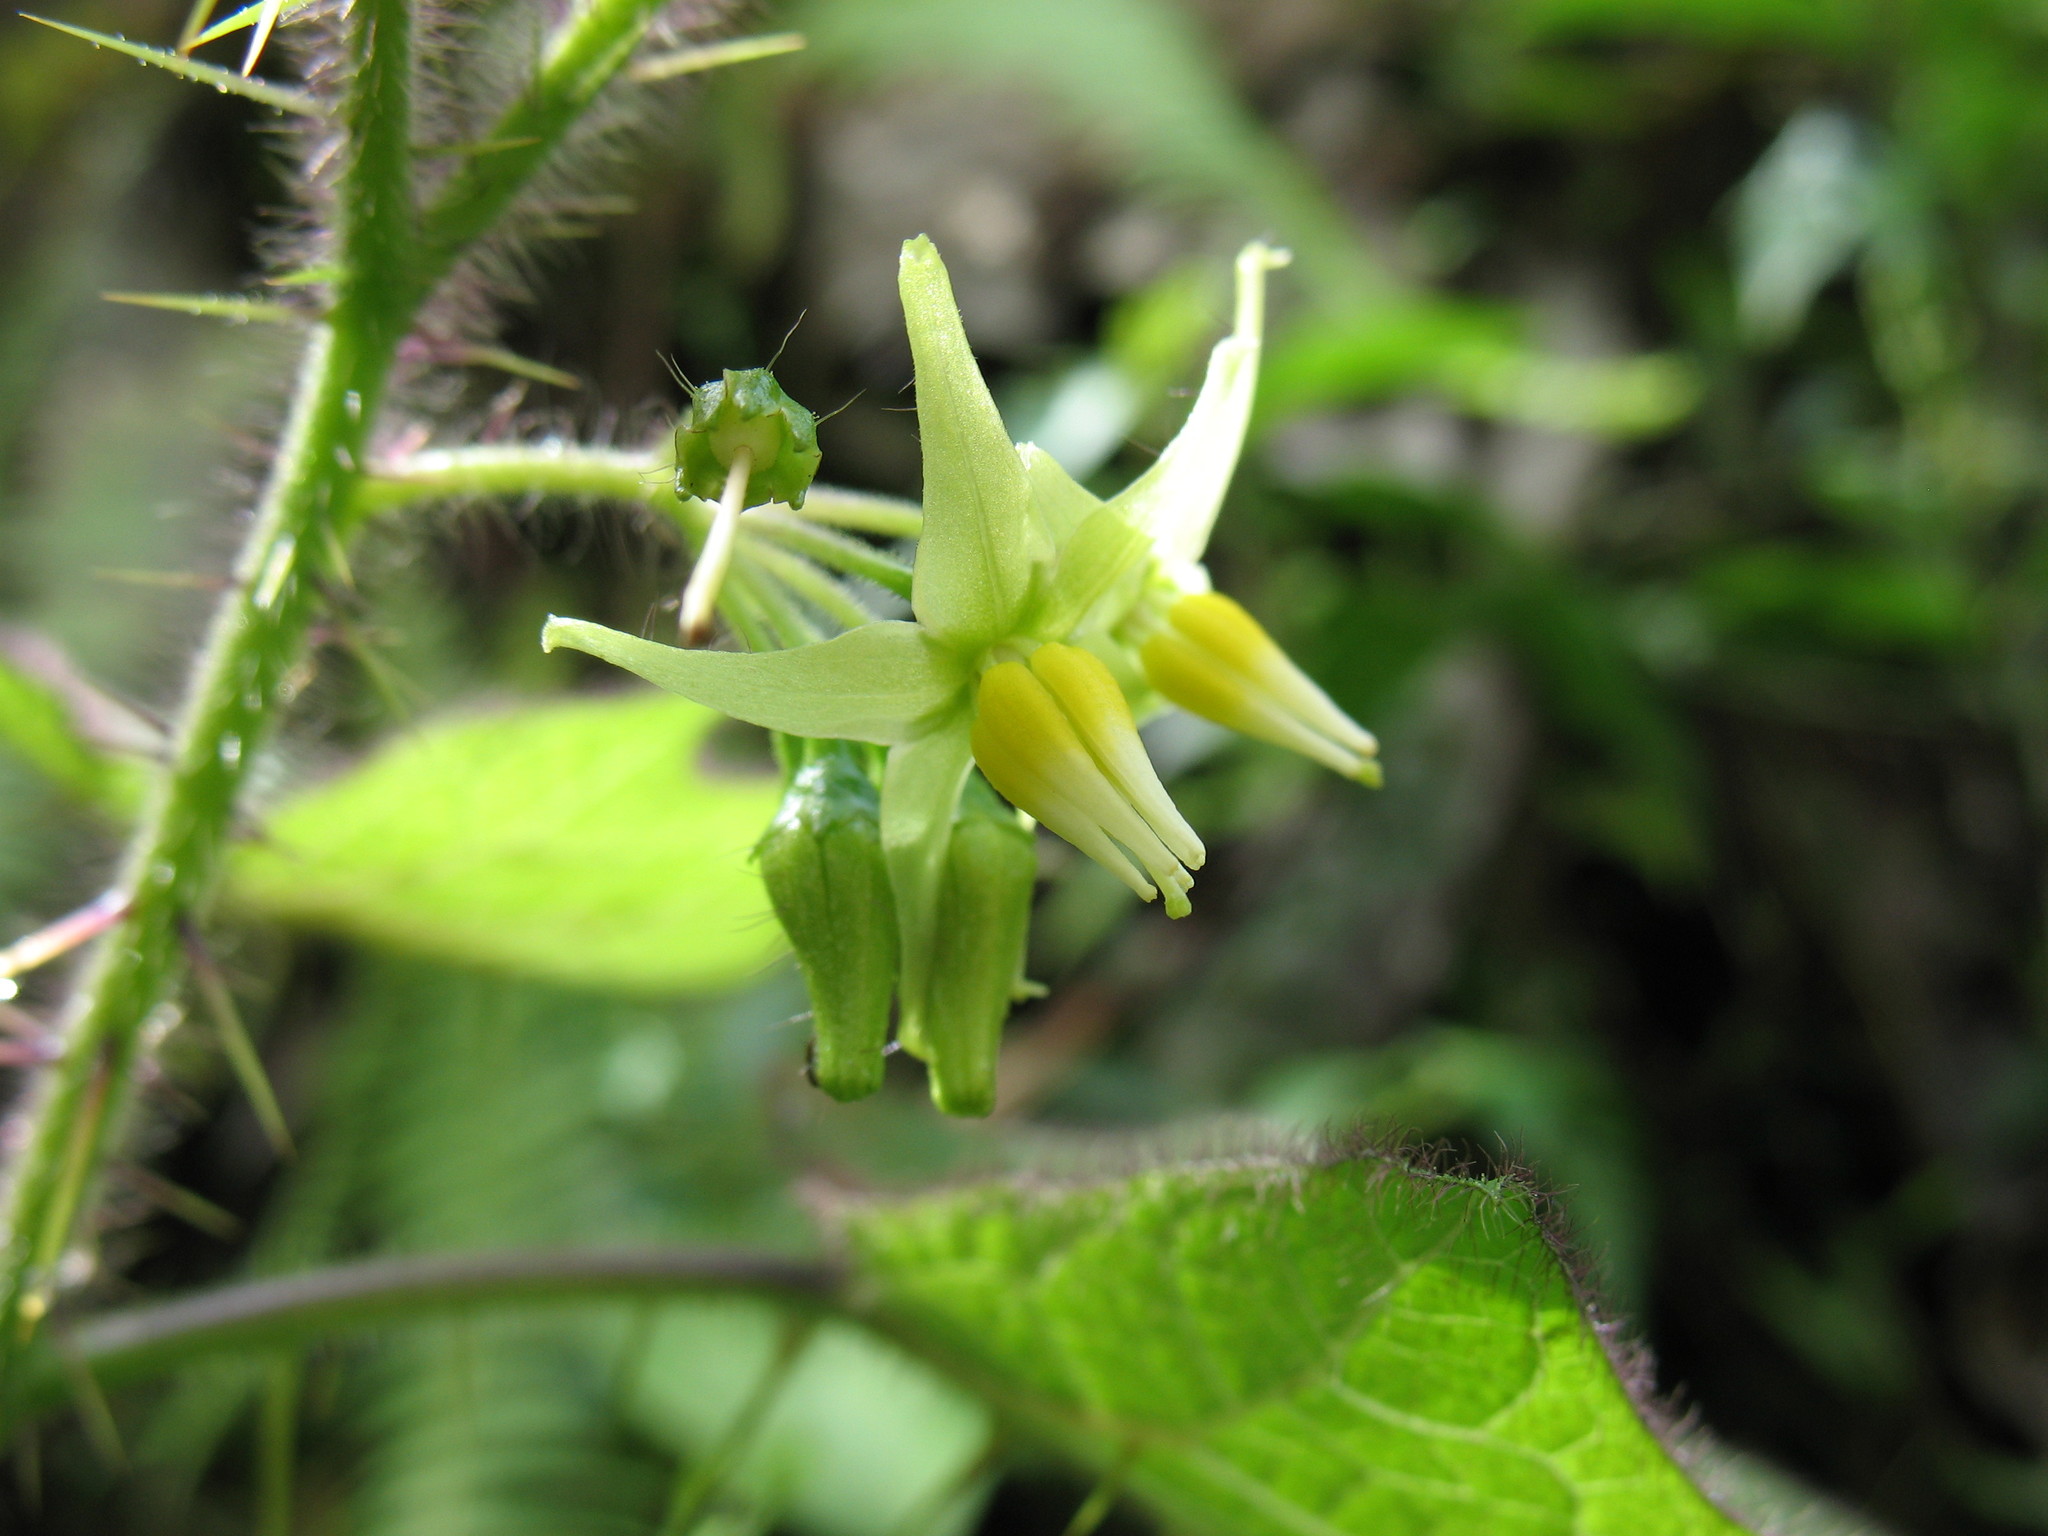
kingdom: Plantae
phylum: Tracheophyta
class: Magnoliopsida
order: Solanales
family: Solanaceae
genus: Solanum
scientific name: Solanum acerifolium
